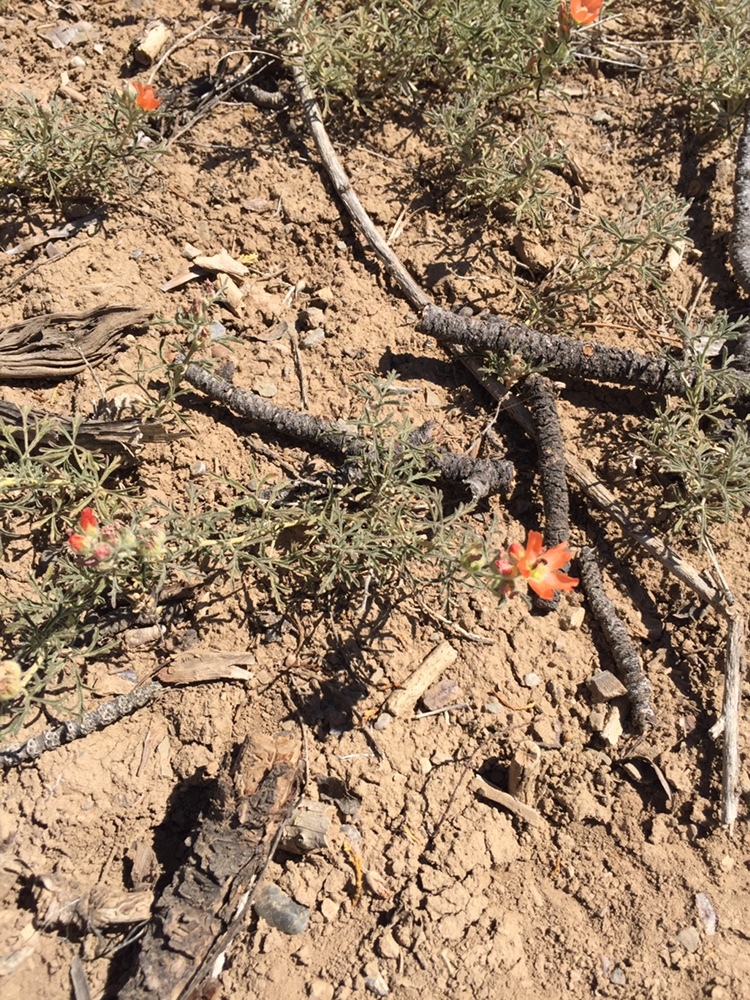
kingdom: Plantae
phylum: Tracheophyta
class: Magnoliopsida
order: Malvales
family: Malvaceae
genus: Sphaeralcea
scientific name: Sphaeralcea coccinea
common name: Moss-rose
